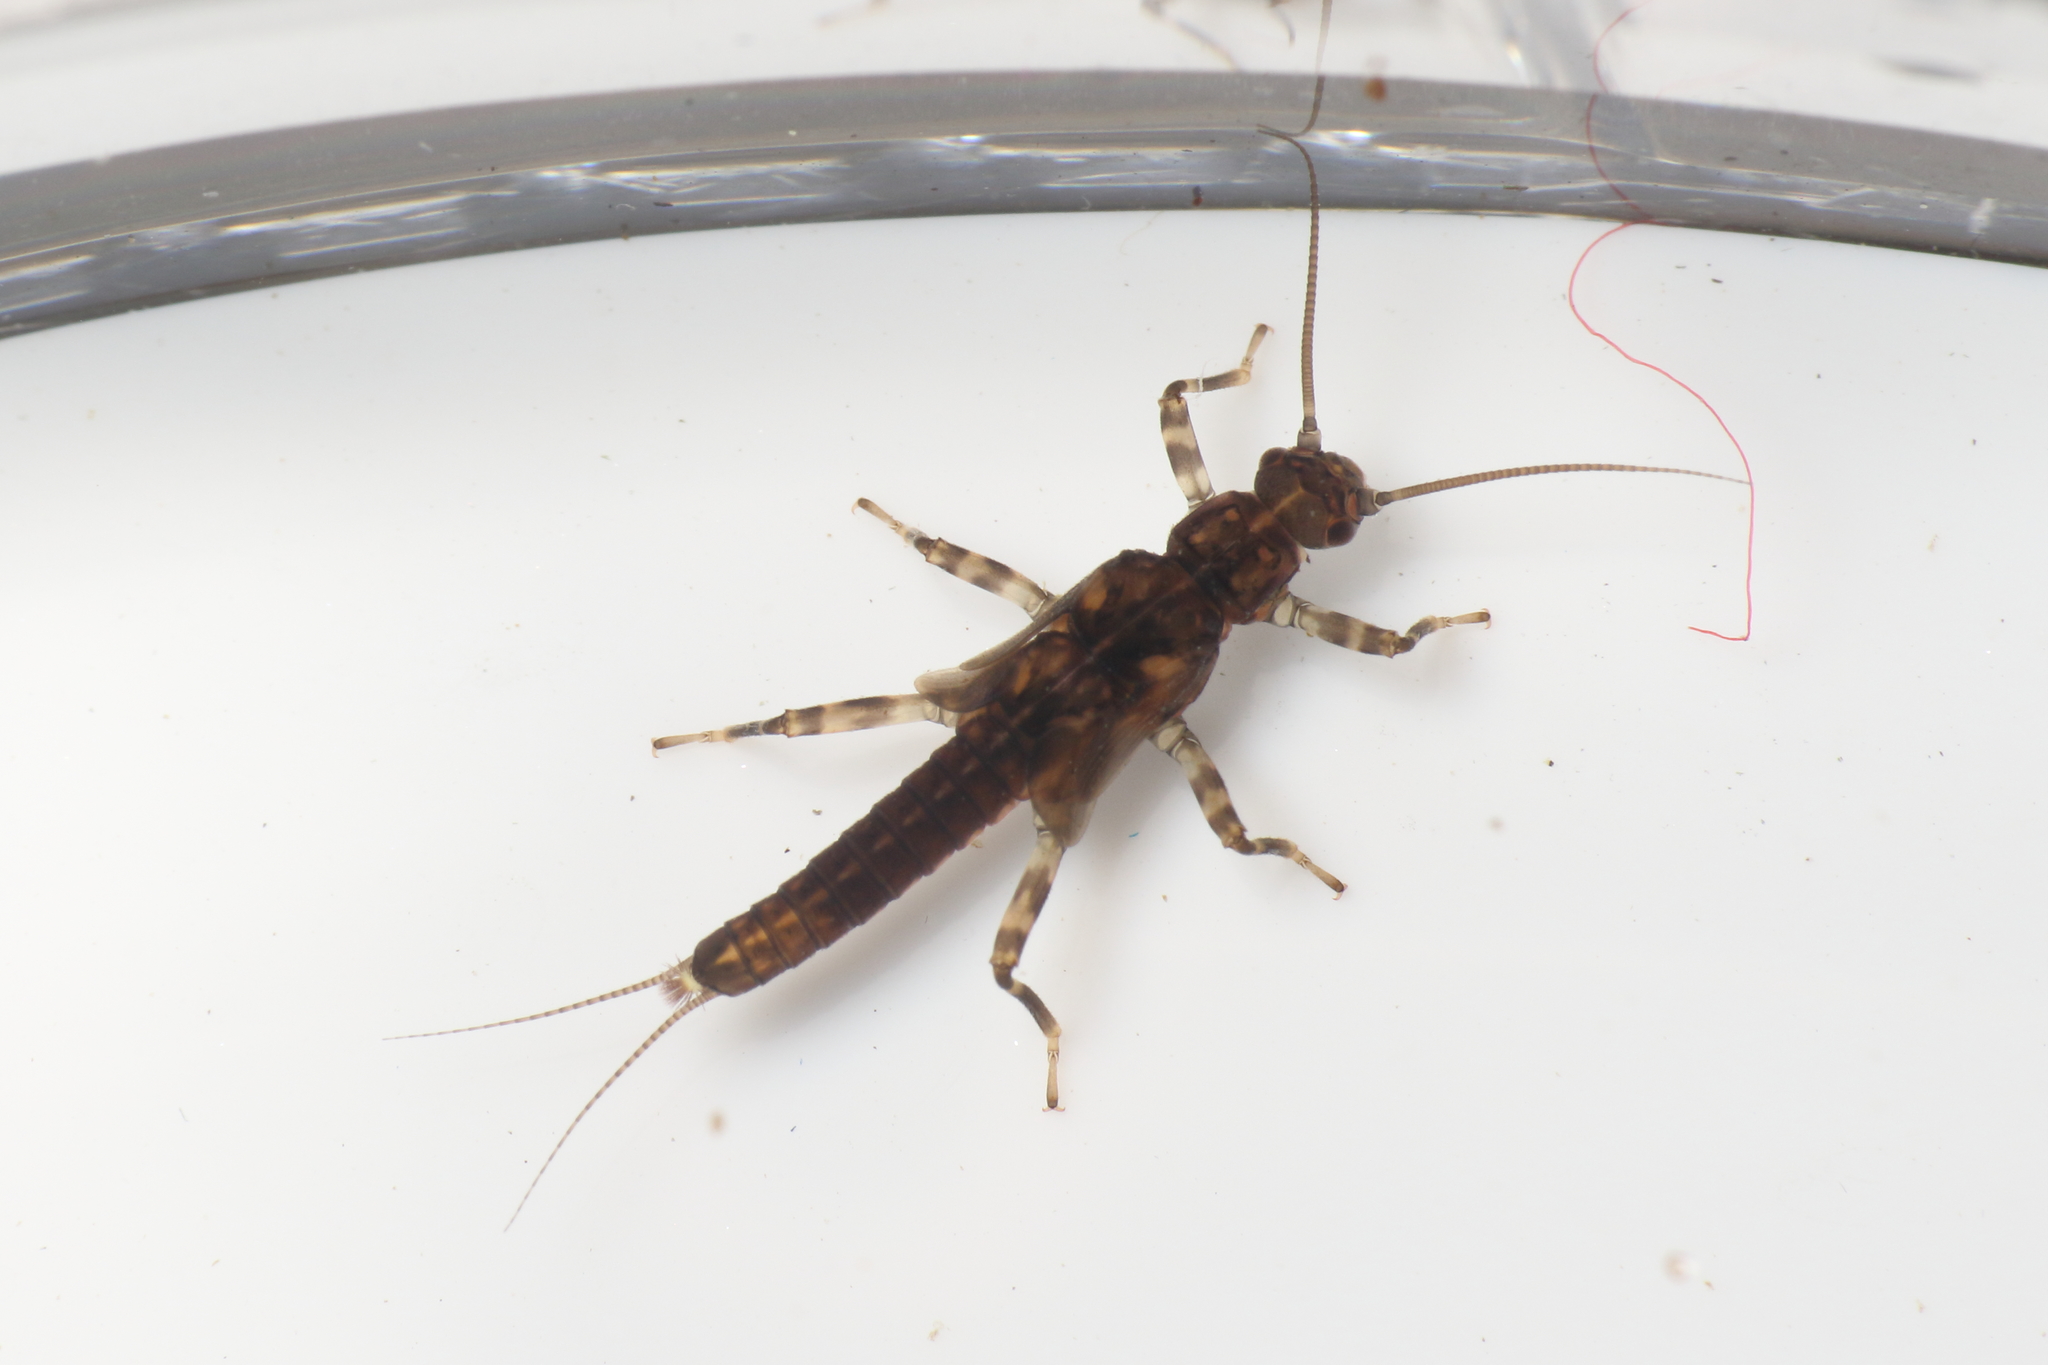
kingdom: Animalia
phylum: Arthropoda
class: Insecta
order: Plecoptera
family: Gripopterygidae
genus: Acroperla
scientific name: Acroperla trivacuata
